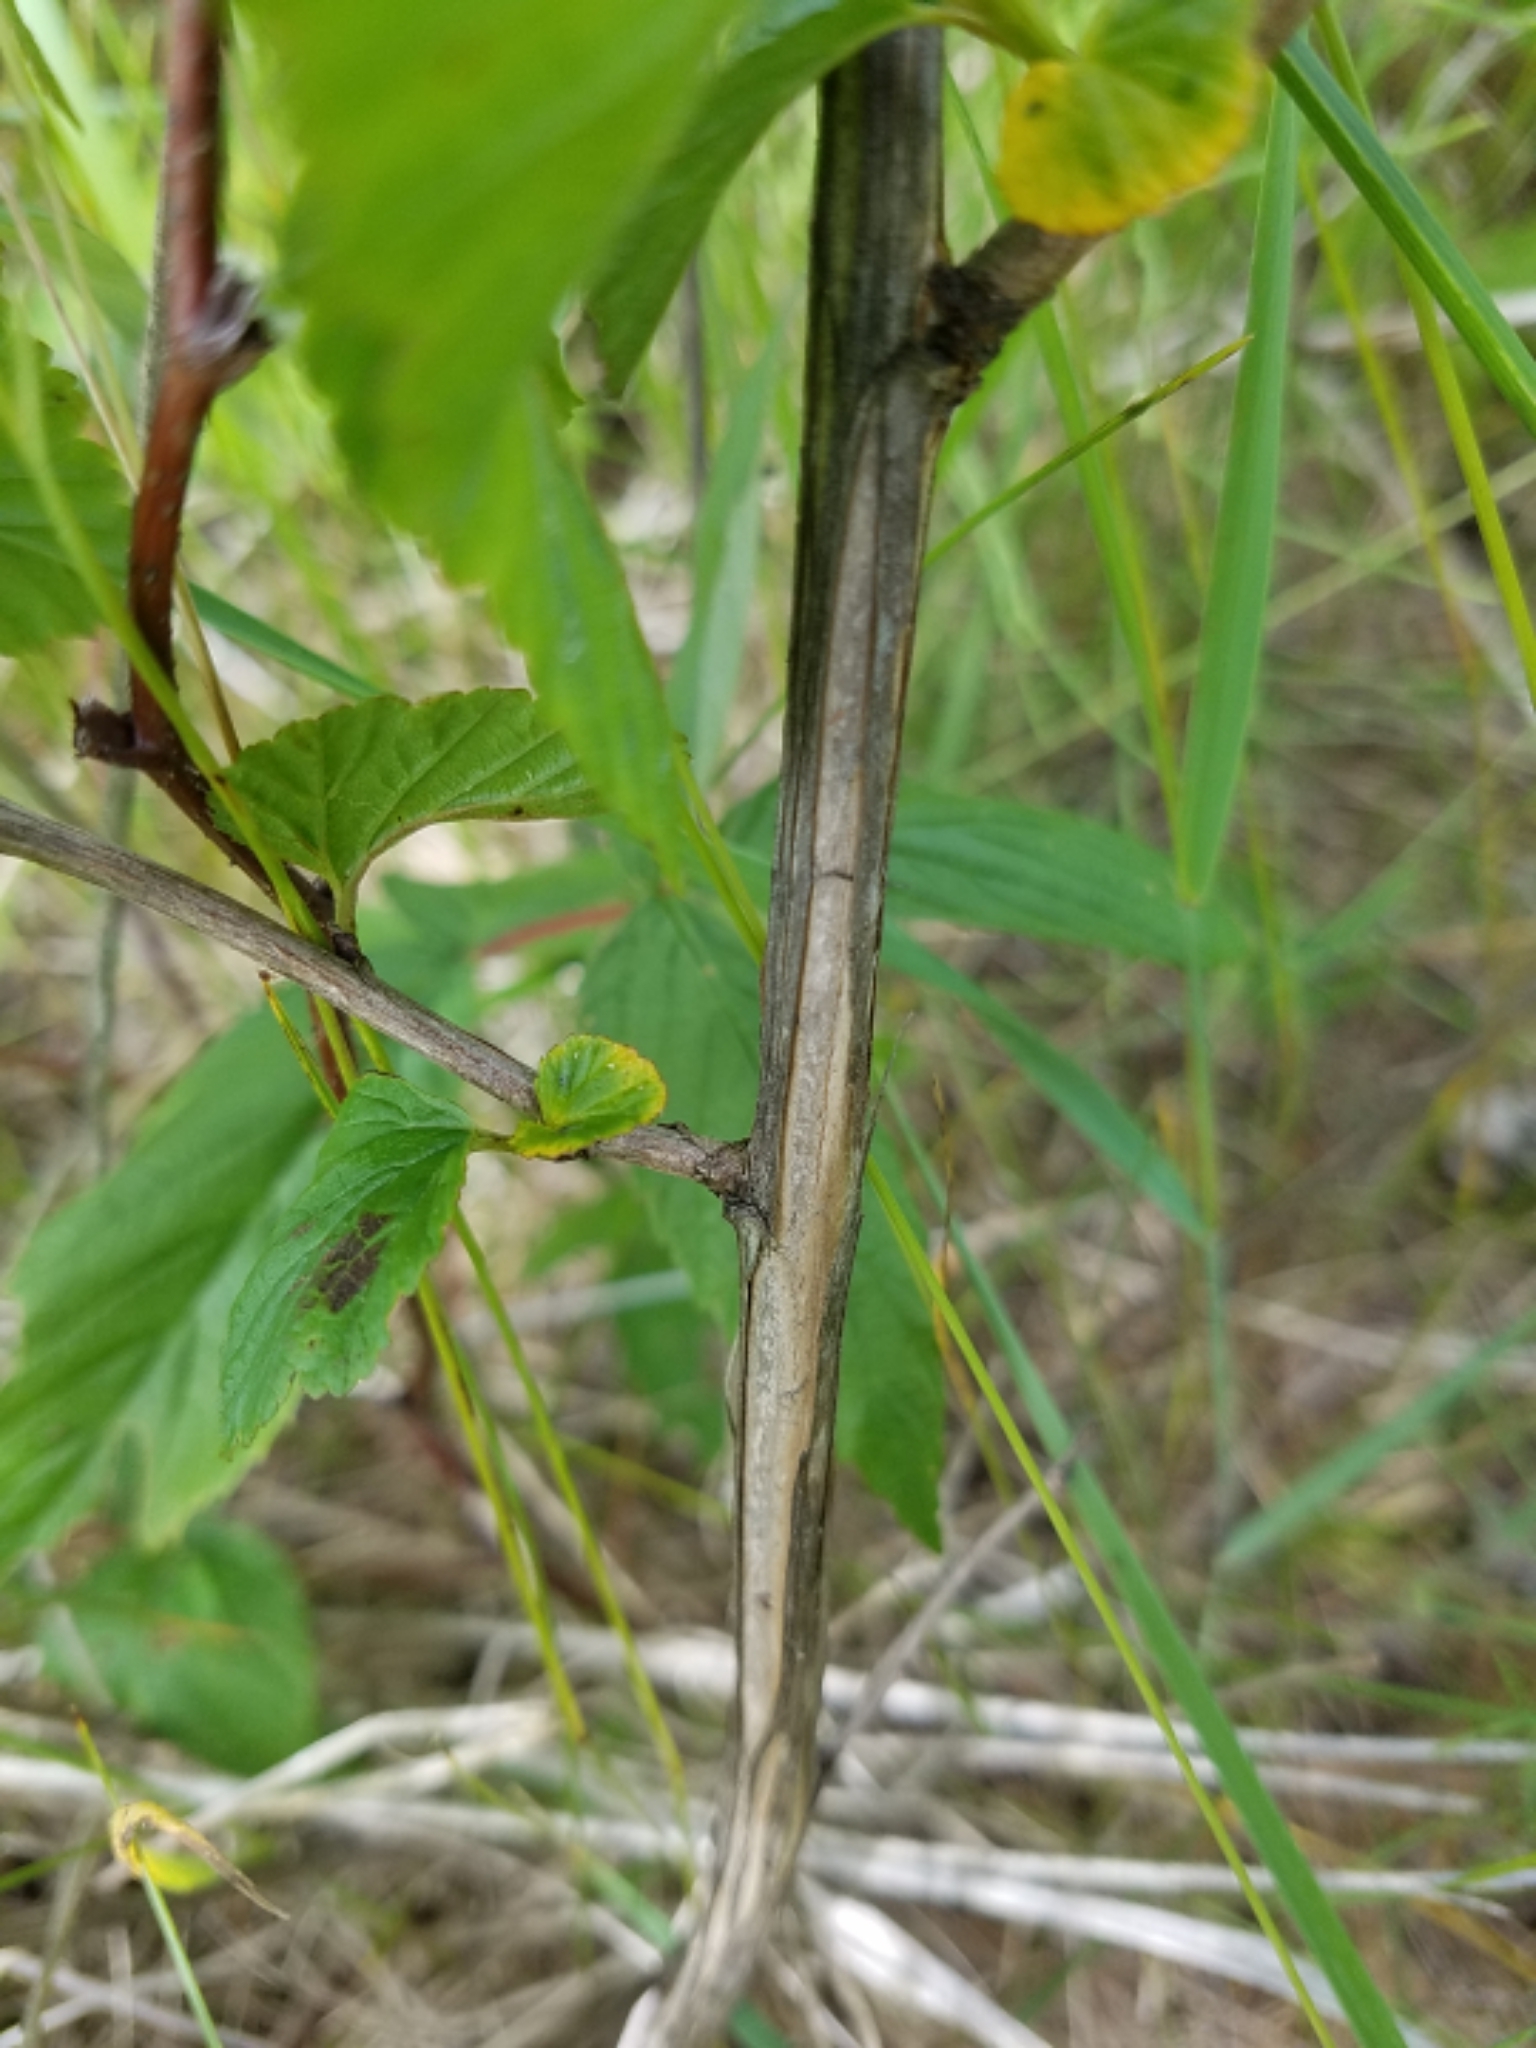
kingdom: Plantae
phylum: Tracheophyta
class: Magnoliopsida
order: Rosales
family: Rosaceae
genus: Physocarpus
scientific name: Physocarpus opulifolius
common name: Ninebark
